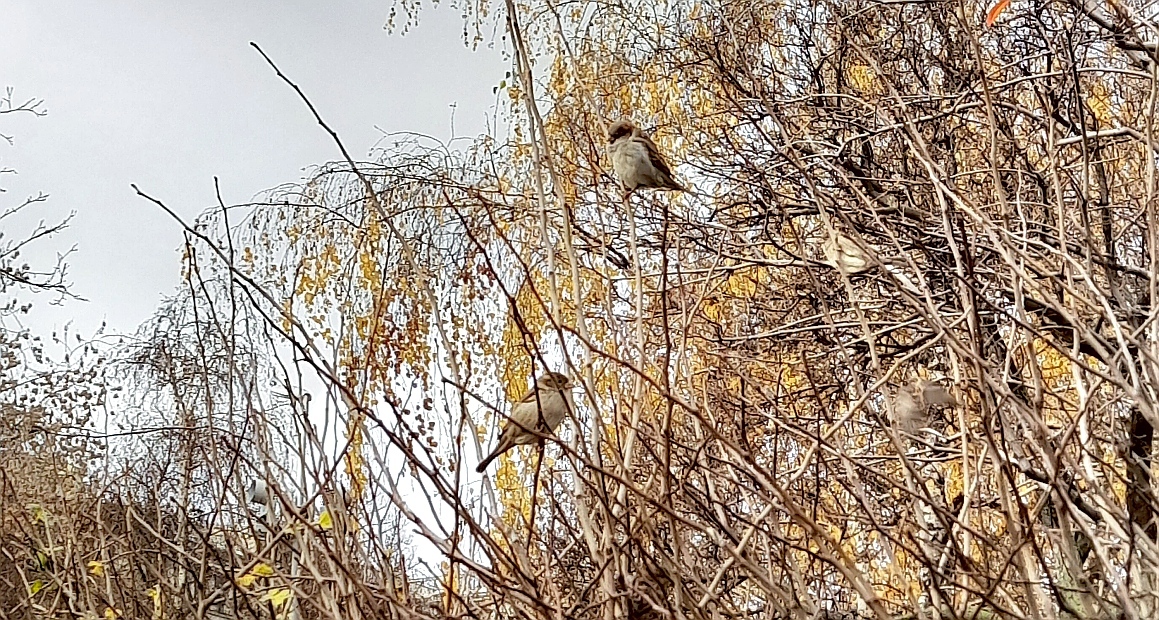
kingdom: Animalia
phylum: Chordata
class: Aves
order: Passeriformes
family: Passeridae
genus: Passer
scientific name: Passer domesticus
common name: House sparrow
